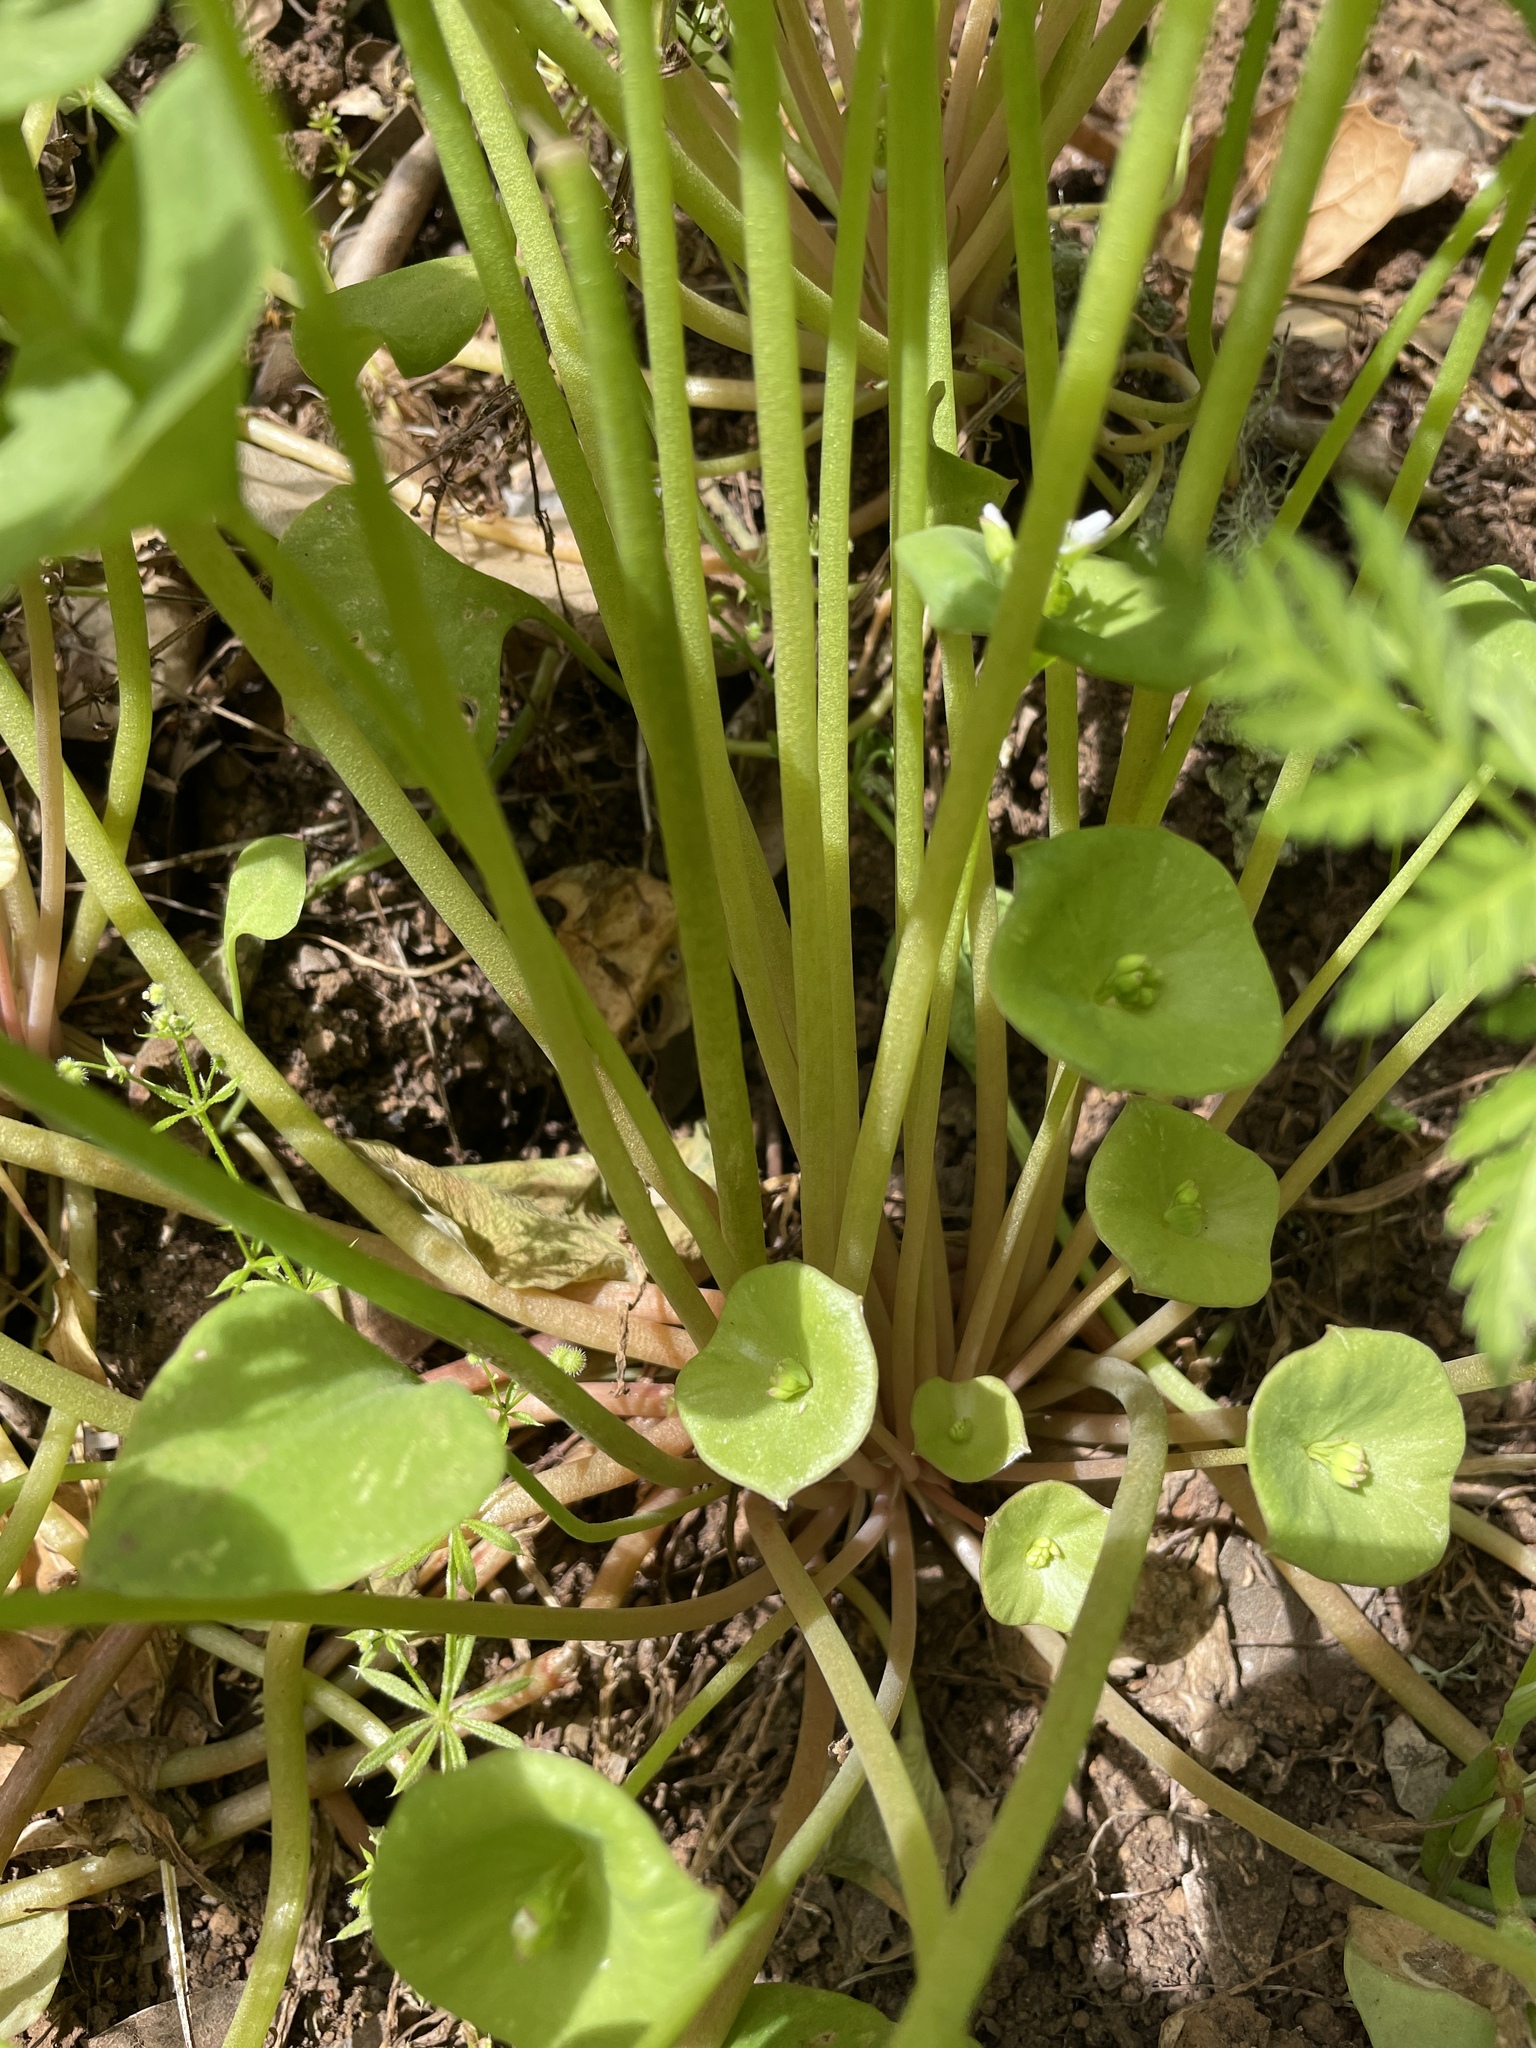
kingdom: Plantae
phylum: Tracheophyta
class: Magnoliopsida
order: Caryophyllales
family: Montiaceae
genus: Claytonia
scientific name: Claytonia perfoliata
